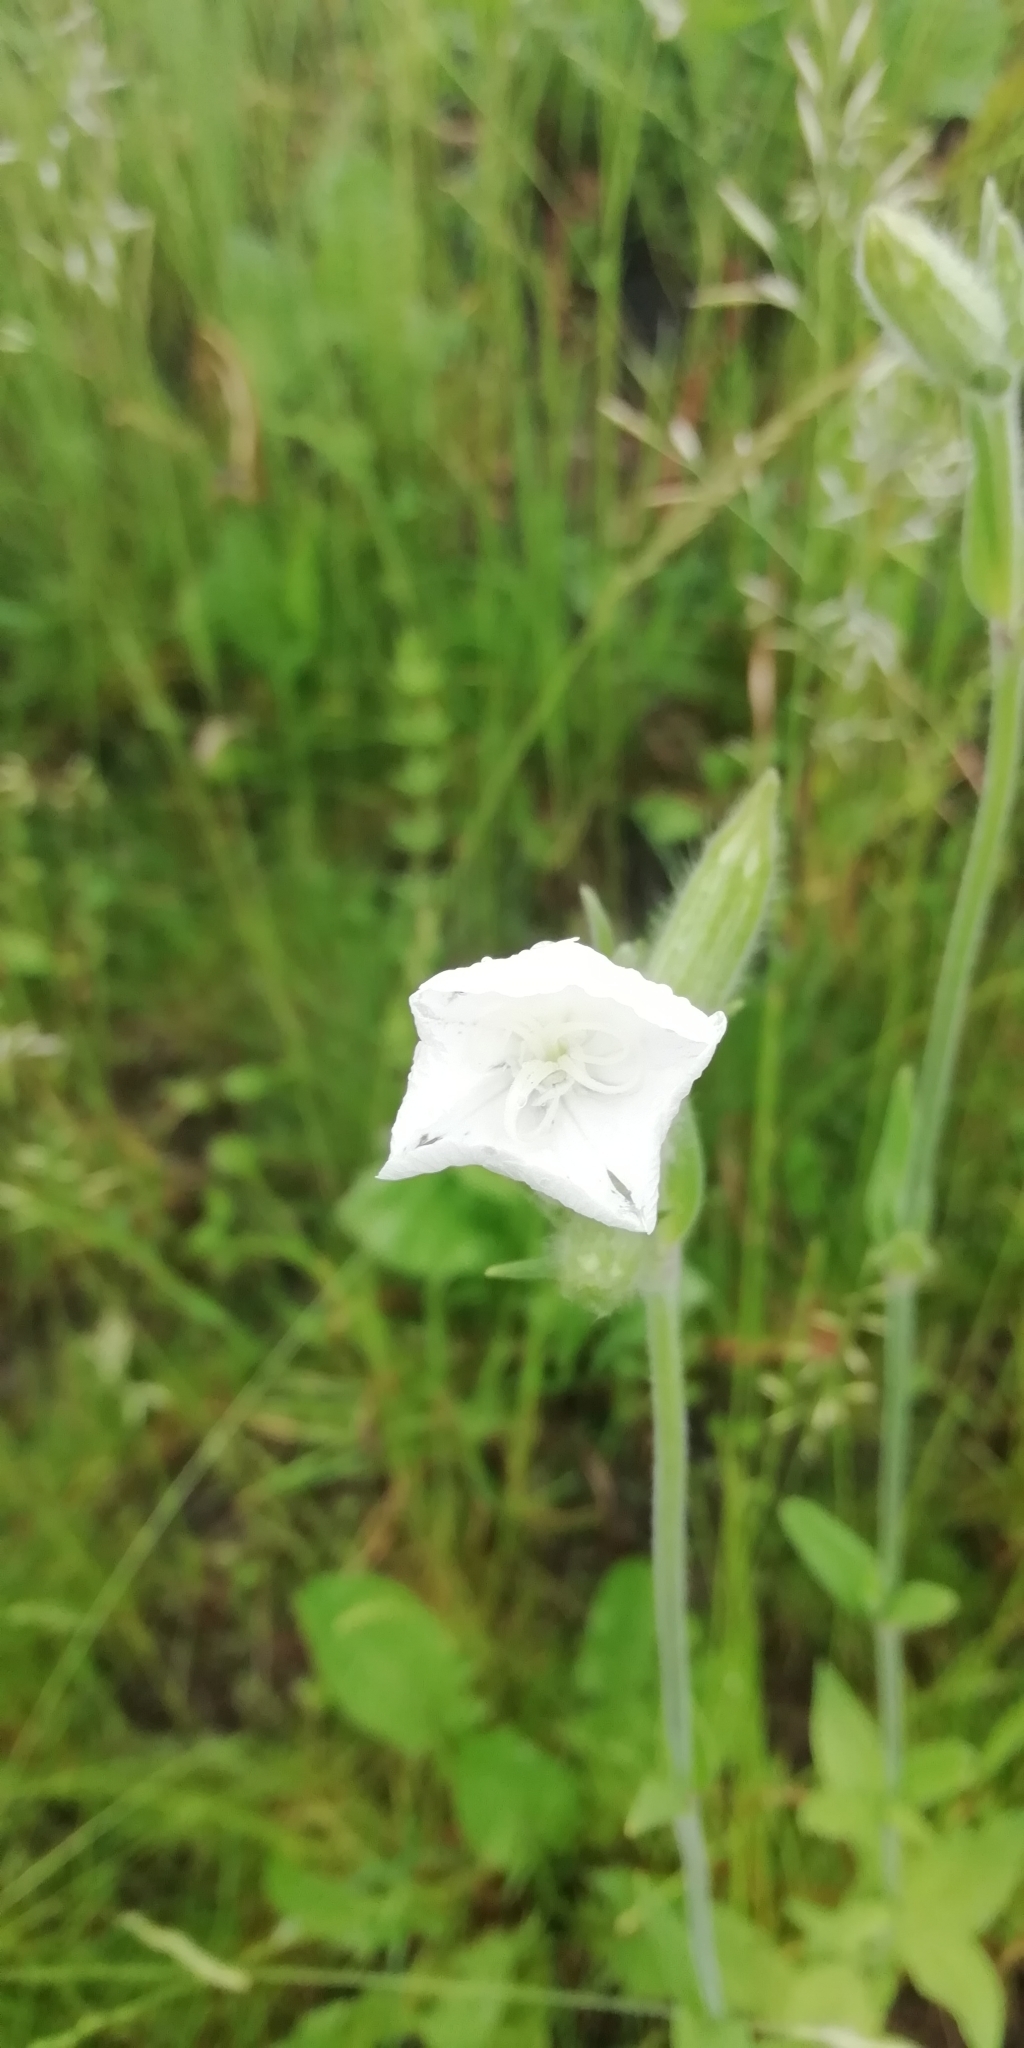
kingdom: Plantae
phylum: Tracheophyta
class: Magnoliopsida
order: Caryophyllales
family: Caryophyllaceae
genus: Silene
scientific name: Silene latifolia
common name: White campion
